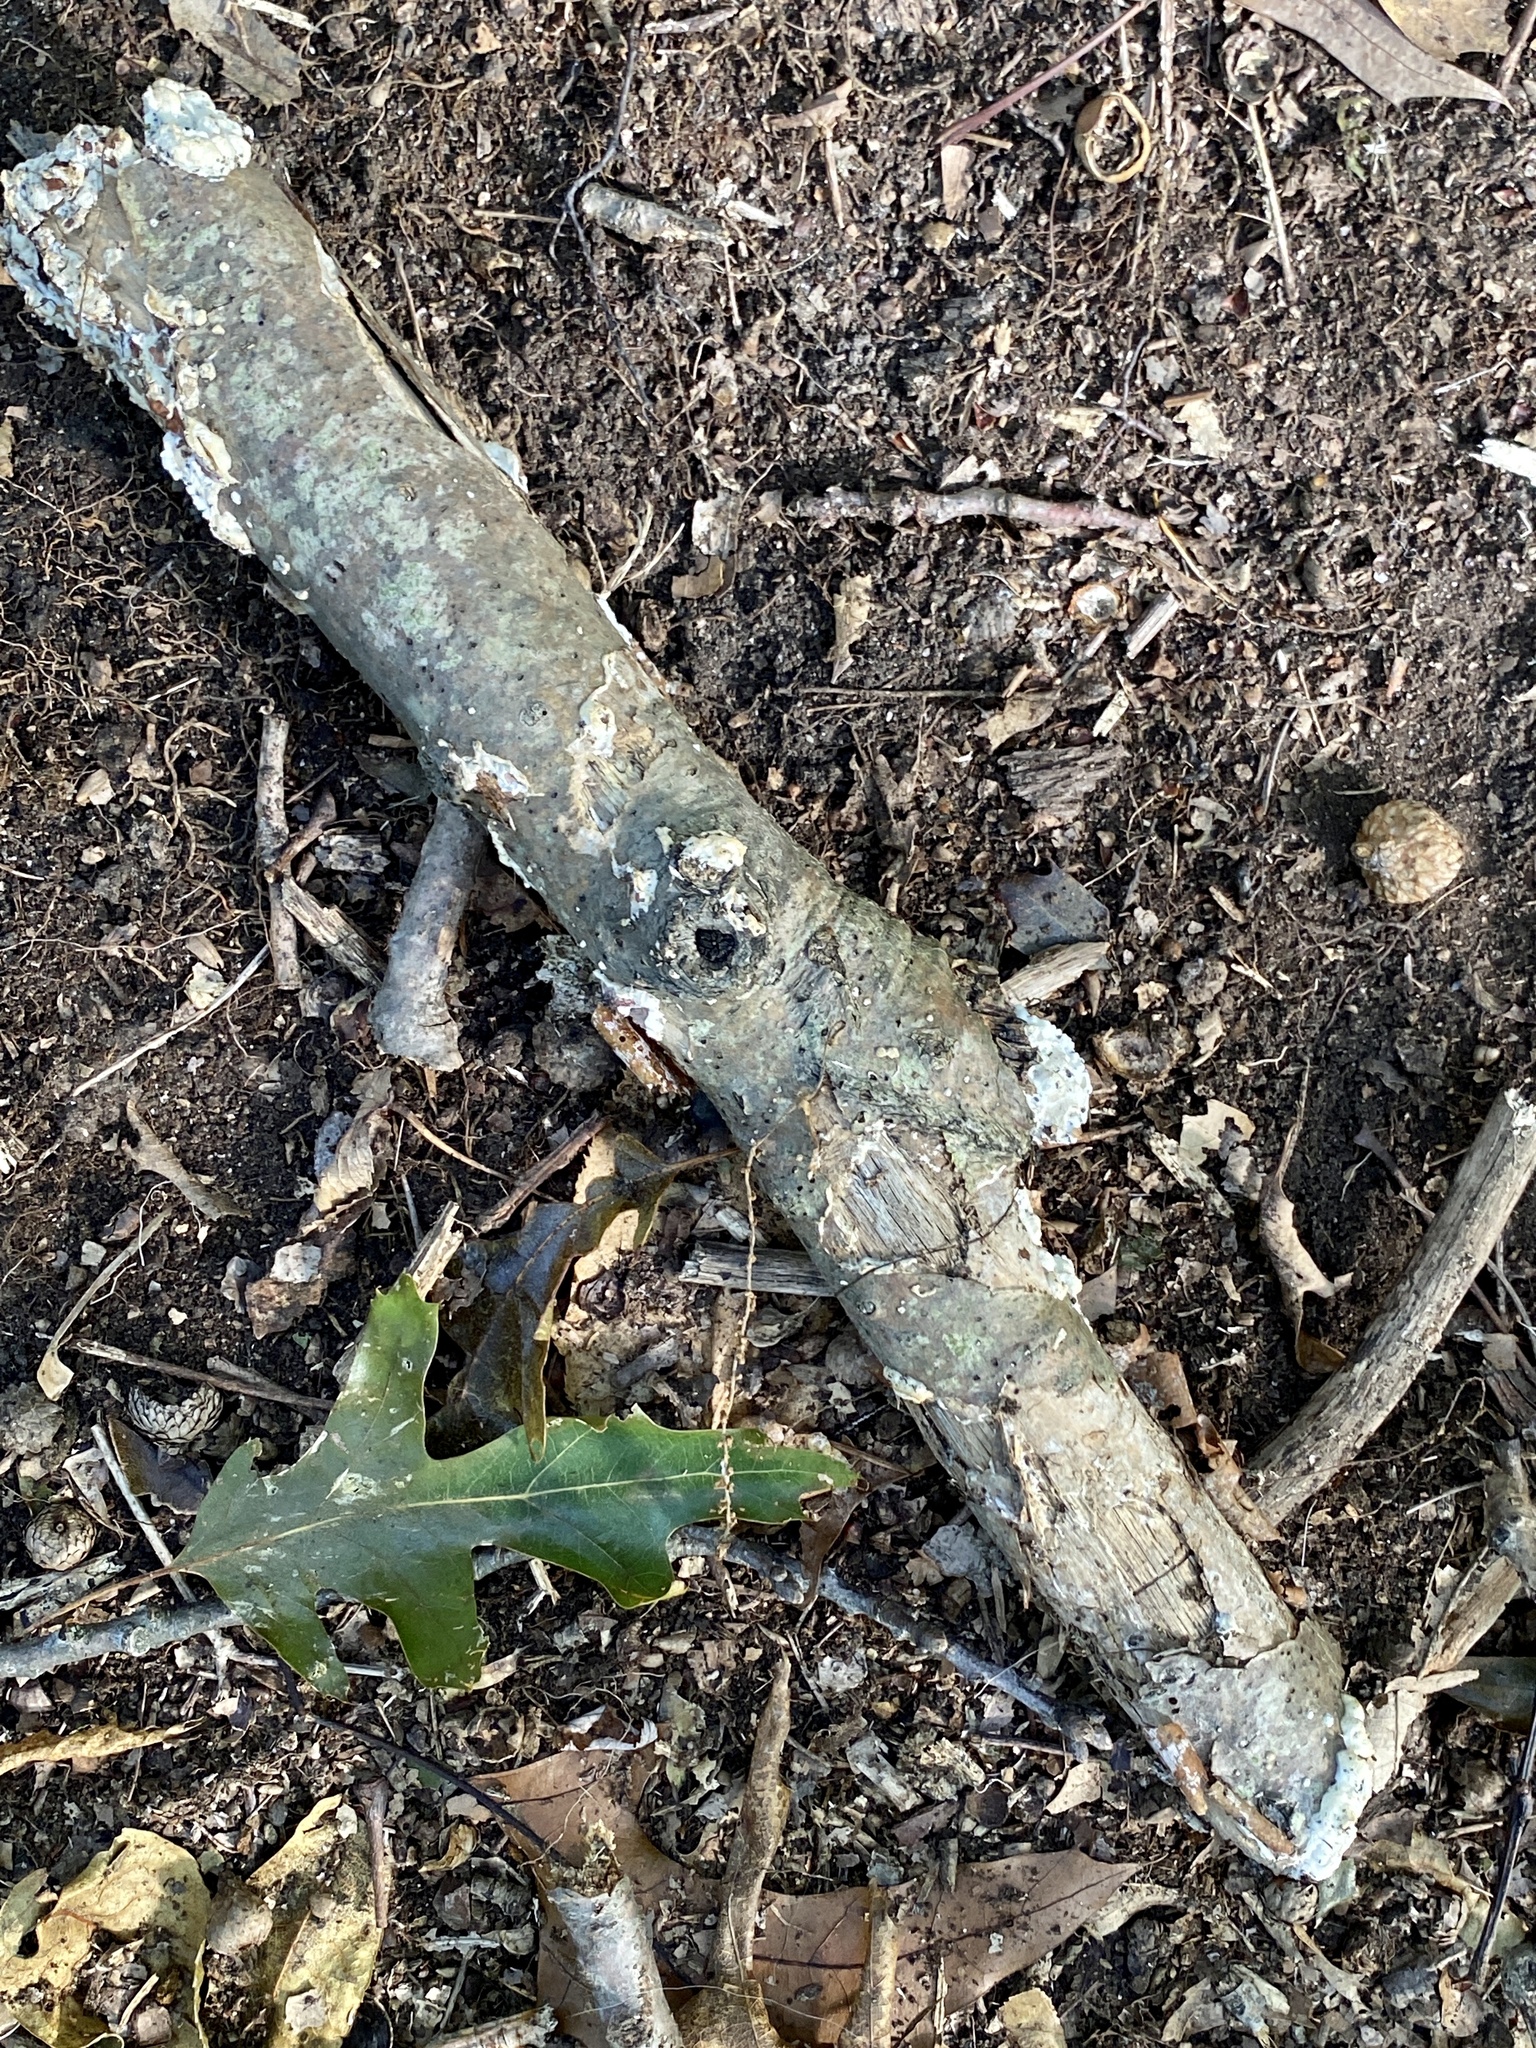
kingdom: Fungi
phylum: Basidiomycota
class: Agaricomycetes
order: Polyporales
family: Irpicaceae
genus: Vitreoporus
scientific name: Vitreoporus dichrous
